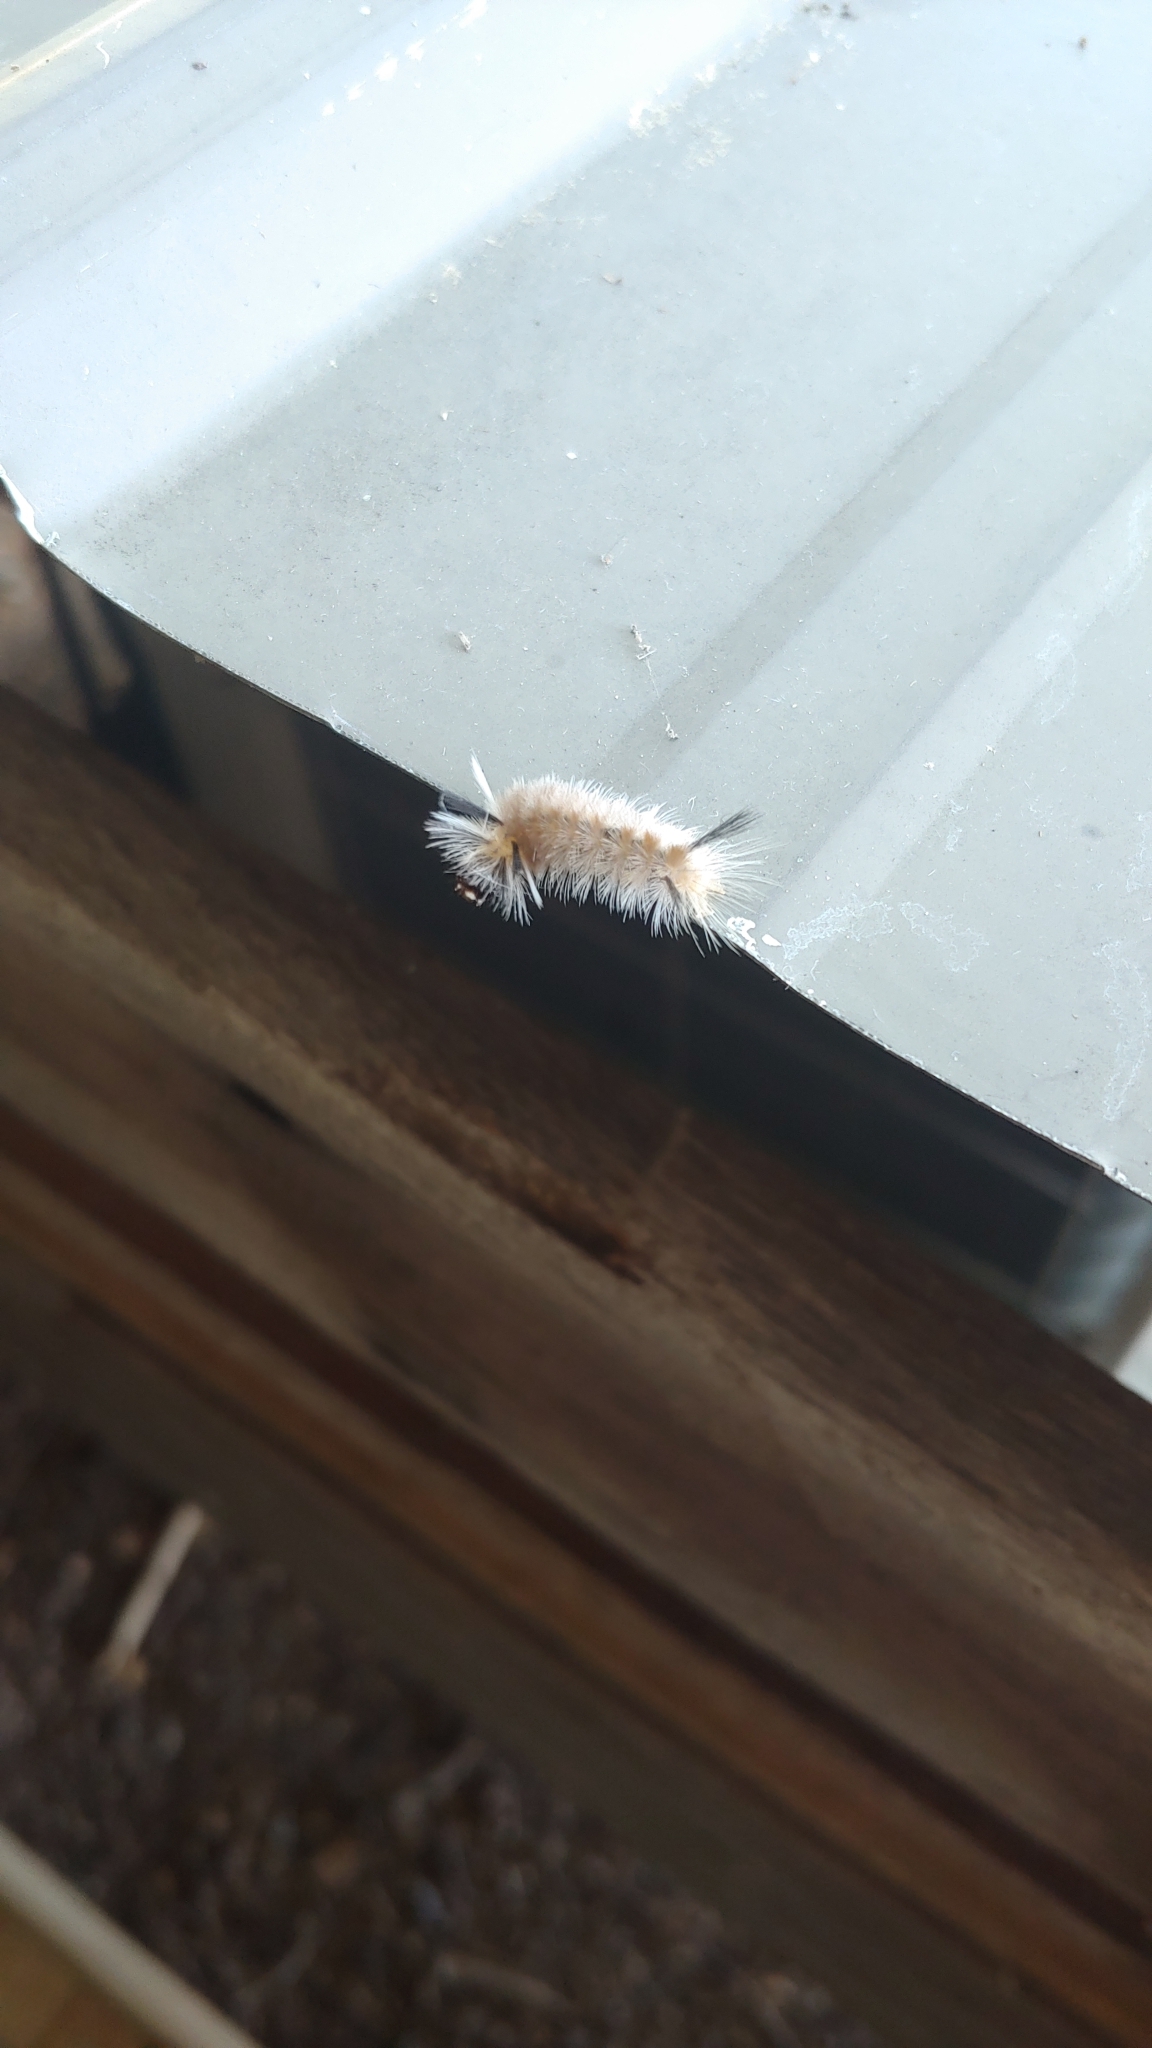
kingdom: Animalia
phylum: Arthropoda
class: Insecta
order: Lepidoptera
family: Erebidae
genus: Halysidota
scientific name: Halysidota tessellaris
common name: Banded tussock moth
